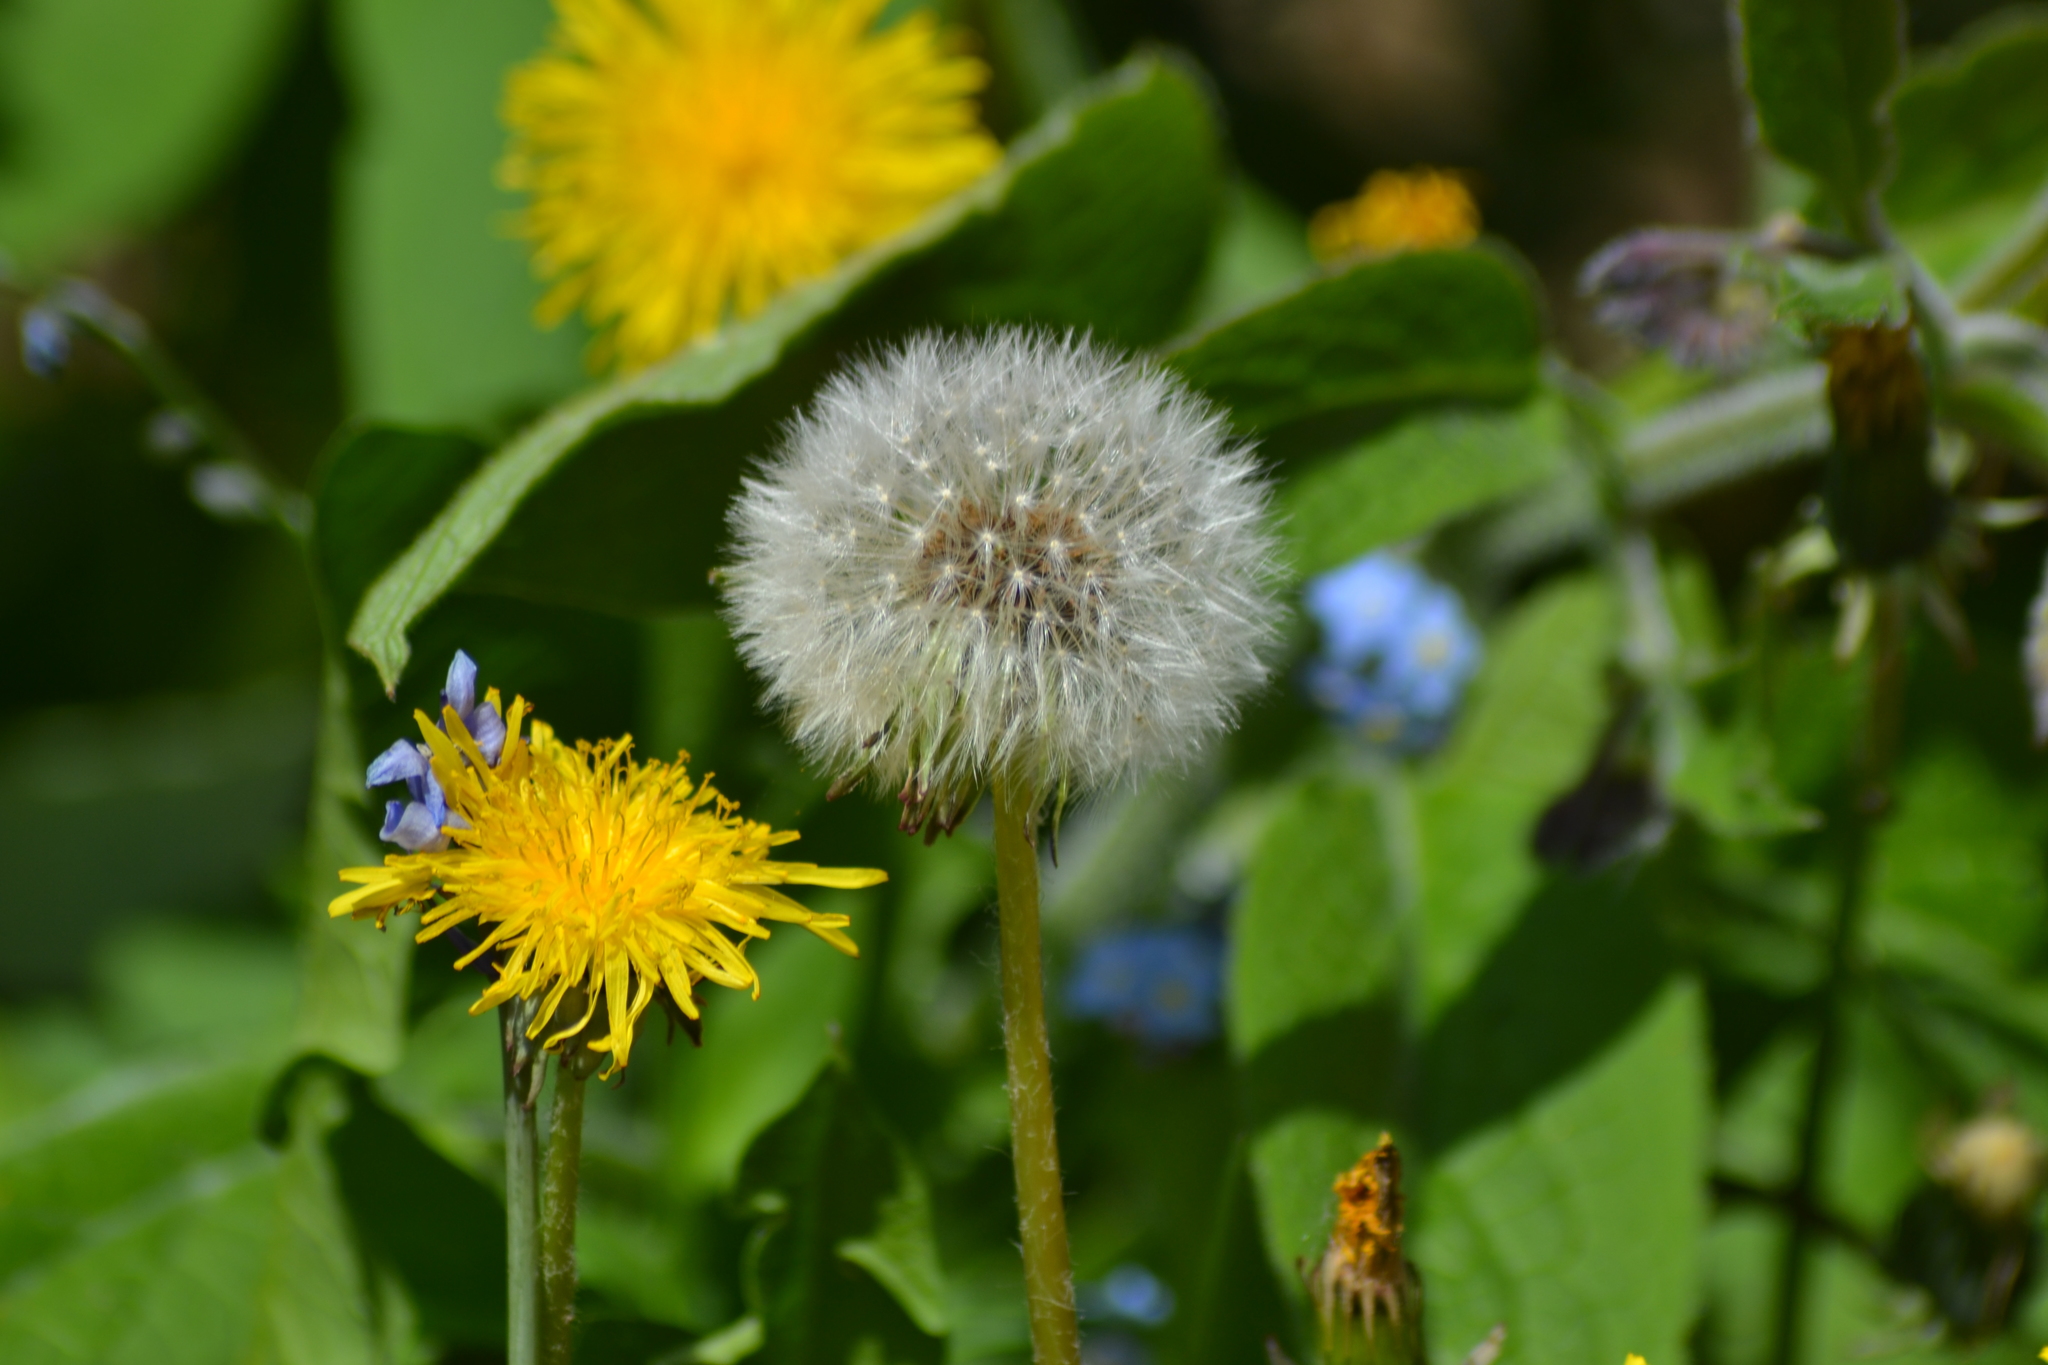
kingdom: Plantae
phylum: Tracheophyta
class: Magnoliopsida
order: Asterales
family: Asteraceae
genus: Taraxacum
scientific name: Taraxacum officinale
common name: Common dandelion
